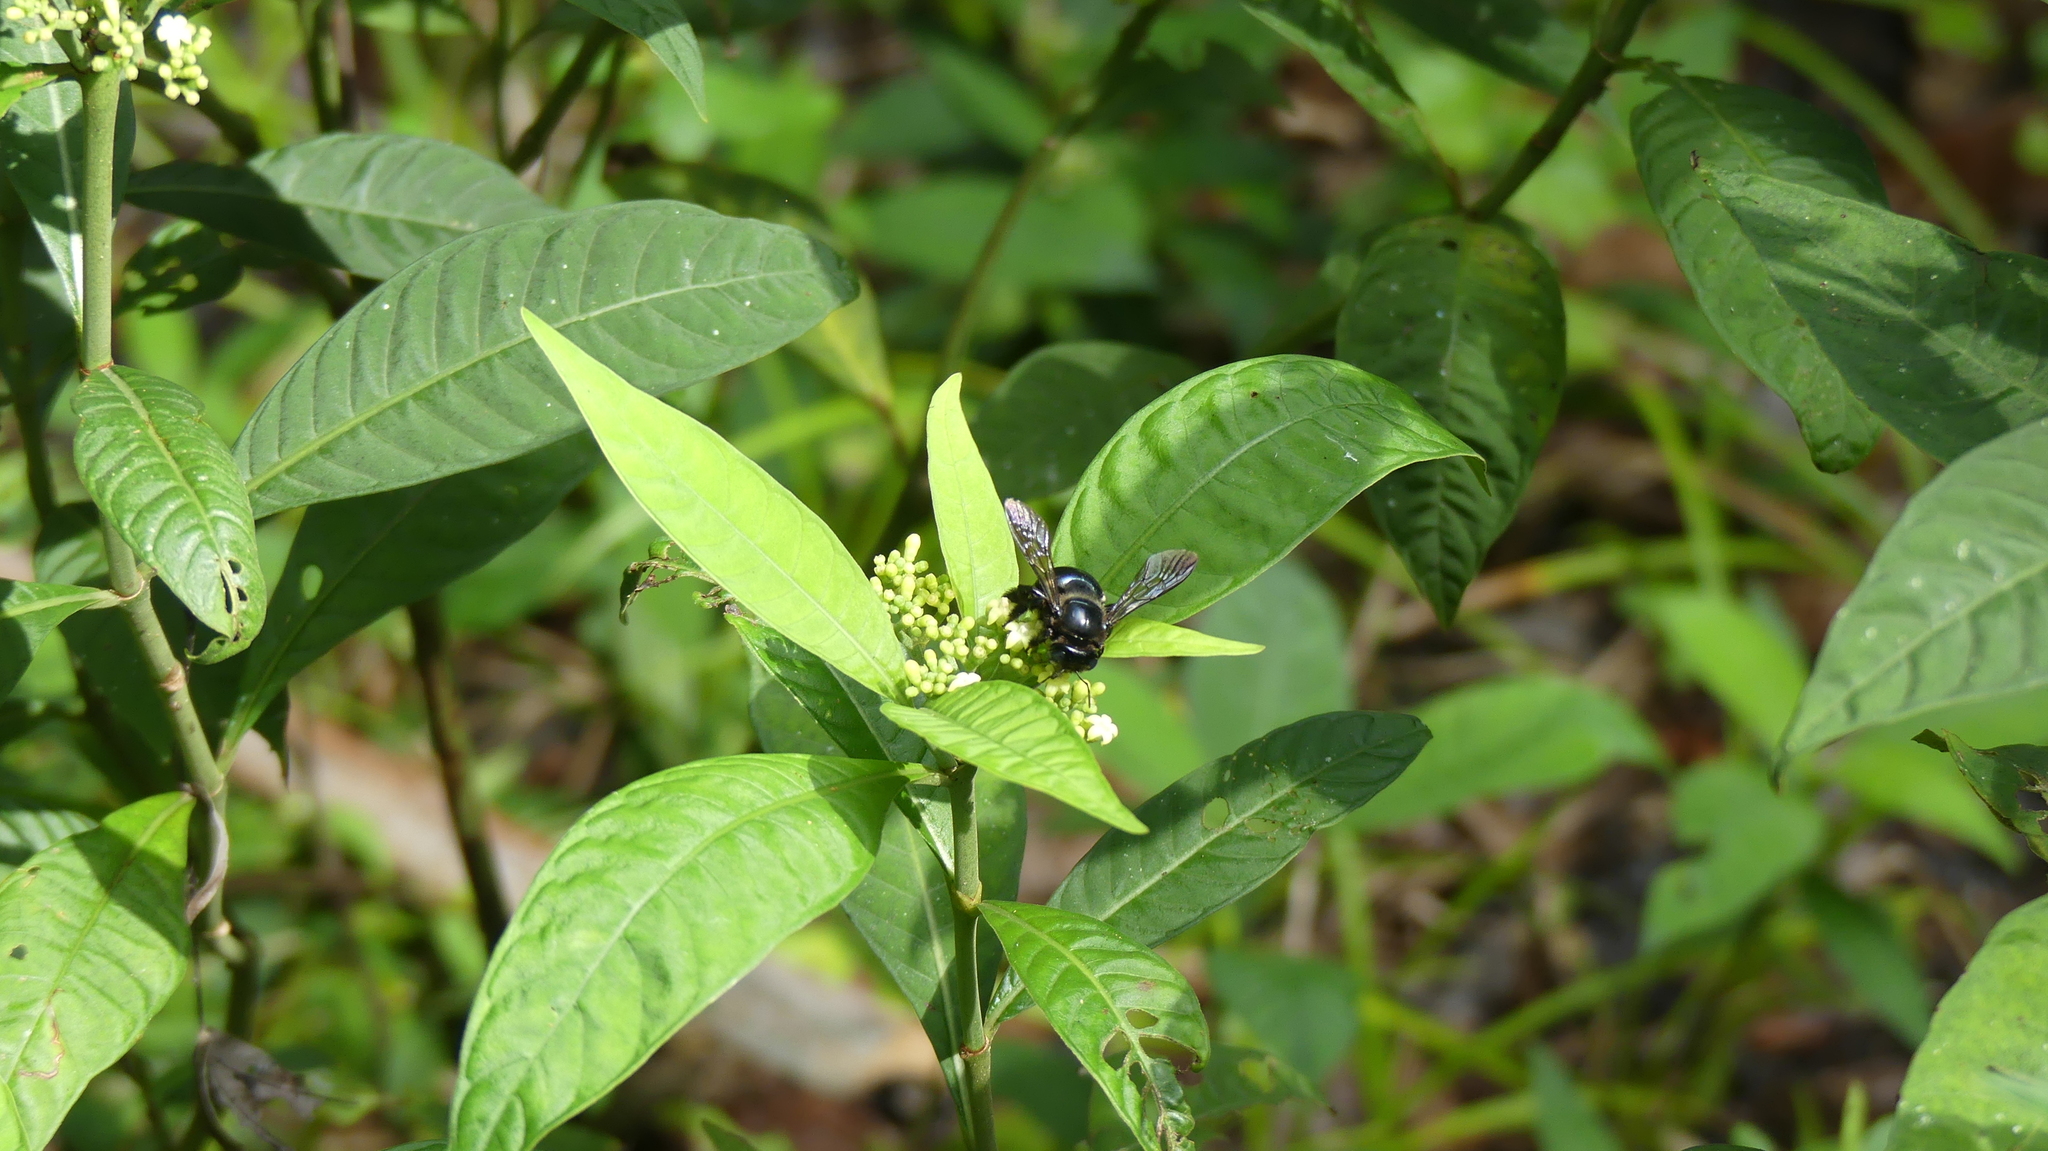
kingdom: Animalia
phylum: Arthropoda
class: Insecta
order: Hymenoptera
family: Apidae
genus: Xylocopa
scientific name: Xylocopa micans
